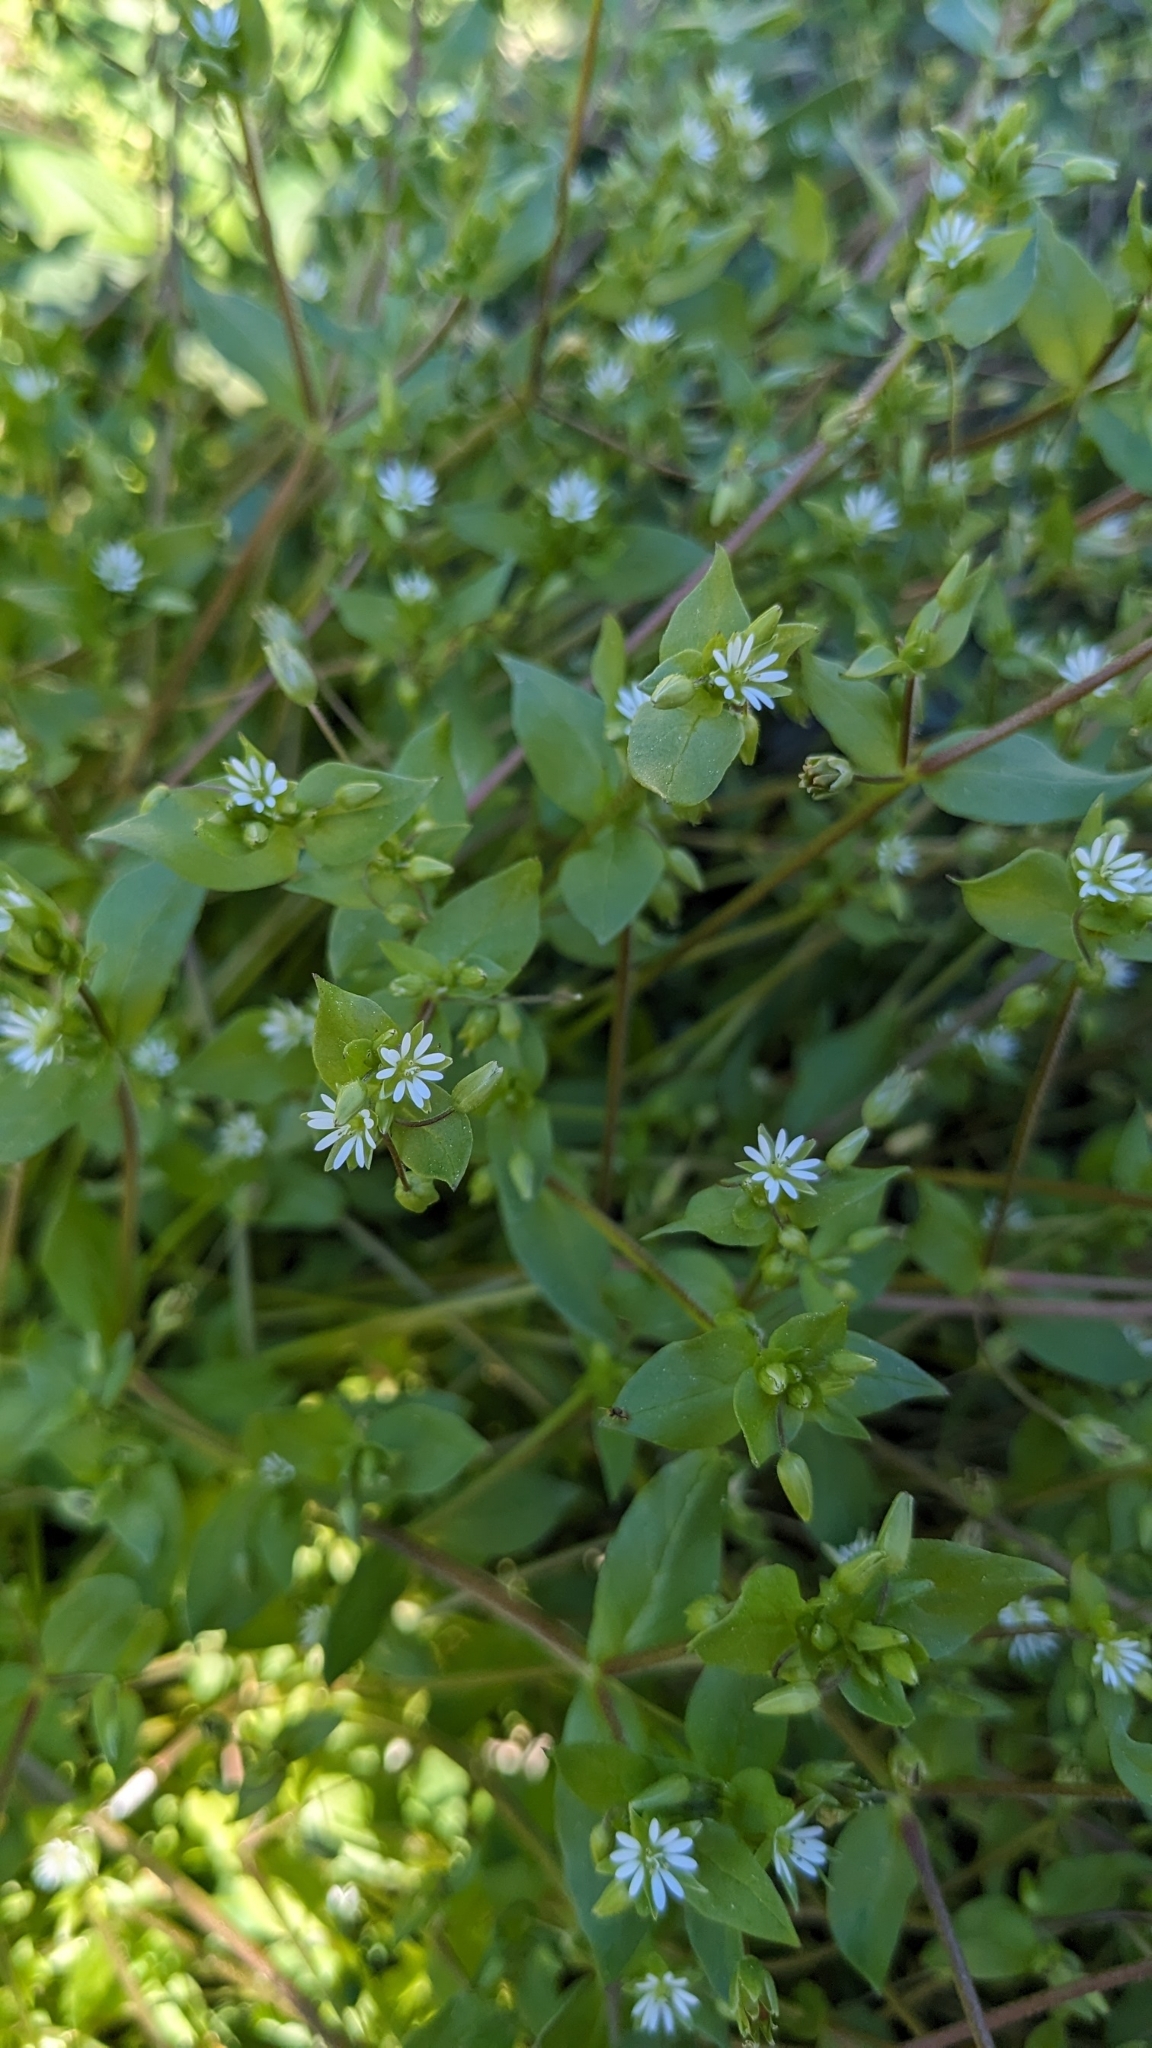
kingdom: Plantae
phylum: Tracheophyta
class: Magnoliopsida
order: Caryophyllales
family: Caryophyllaceae
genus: Stellaria
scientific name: Stellaria media
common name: Common chickweed
